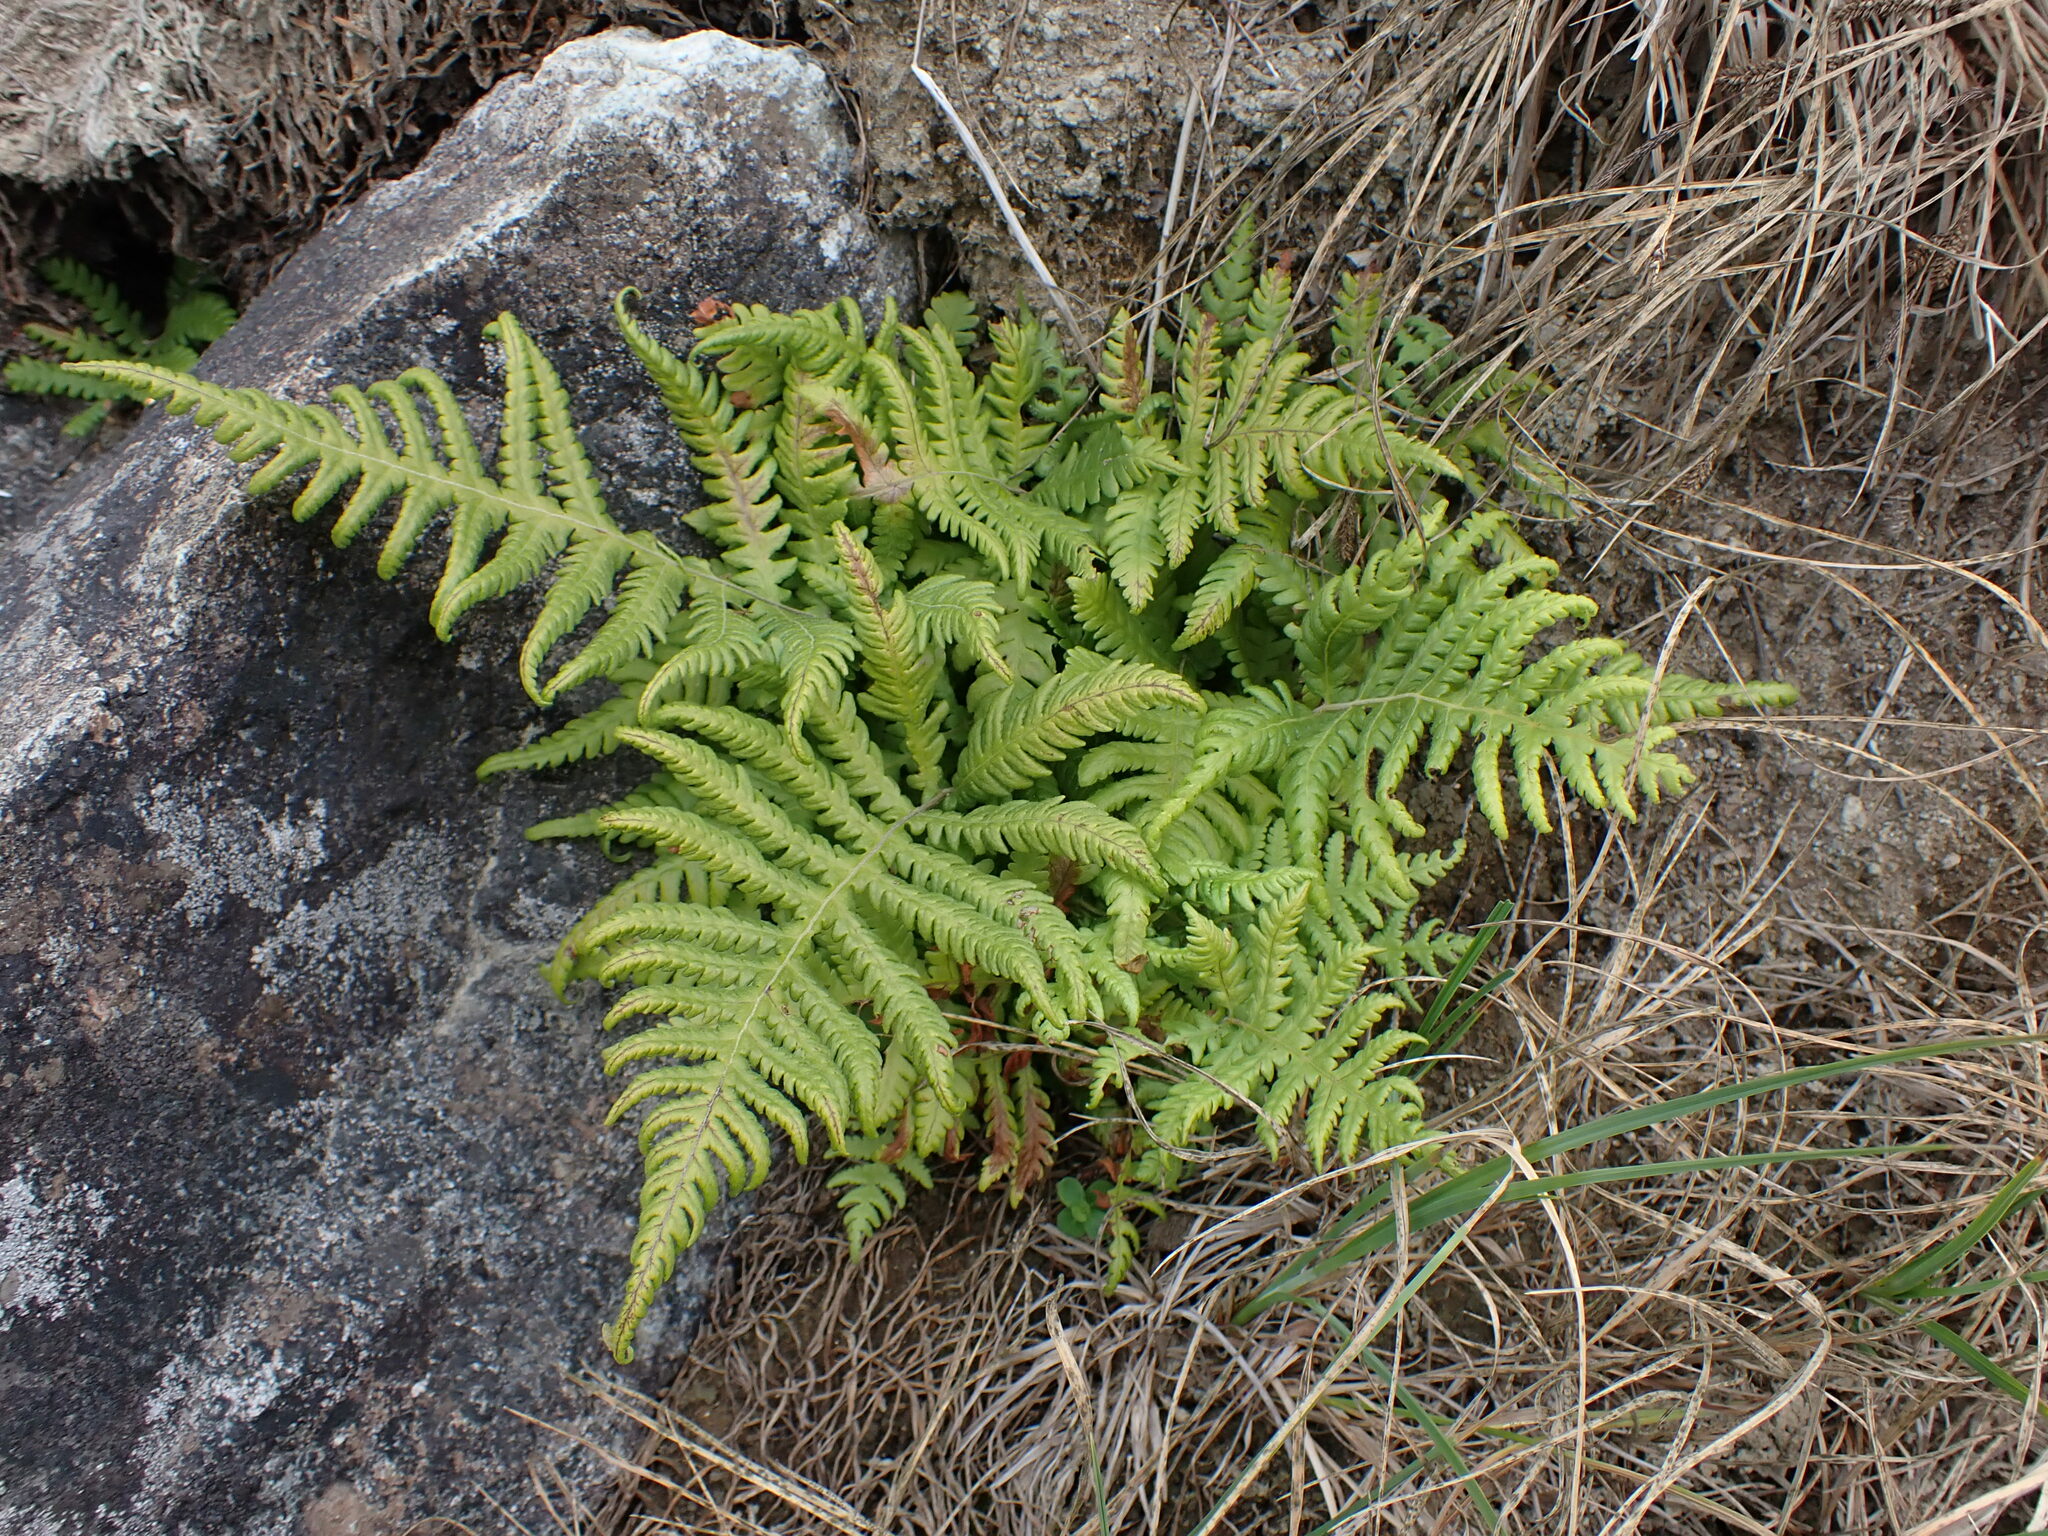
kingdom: Plantae
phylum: Tracheophyta
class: Polypodiopsida
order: Polypodiales
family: Thelypteridaceae
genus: Phegopteris
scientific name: Phegopteris connectilis
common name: Beech fern
